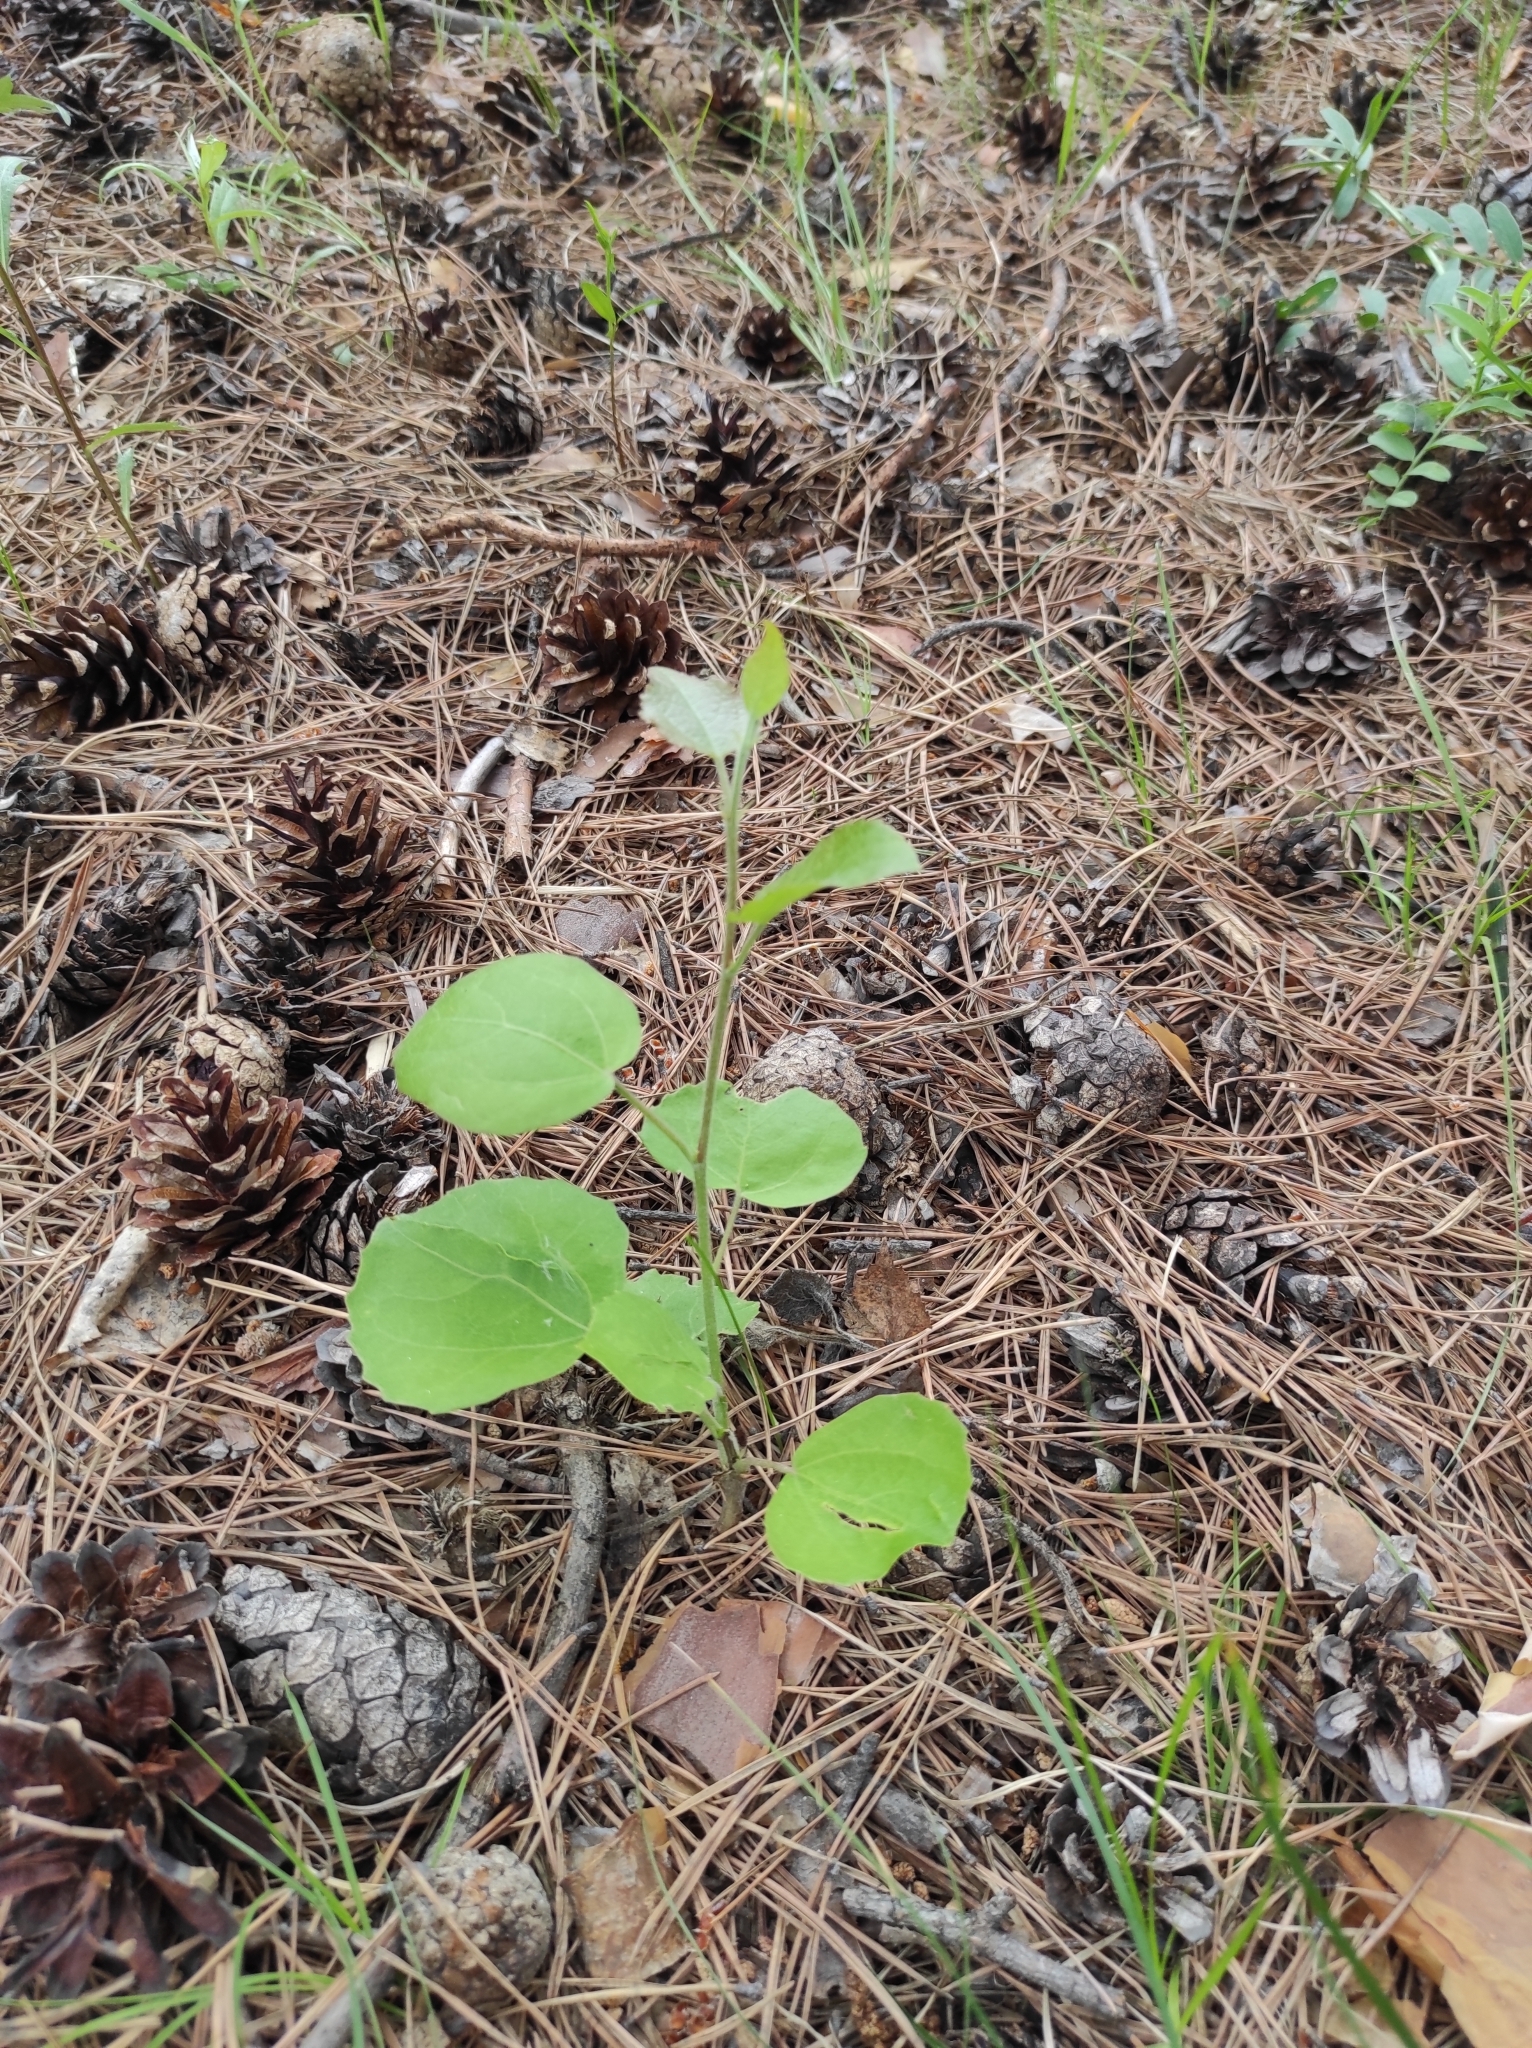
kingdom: Plantae
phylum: Tracheophyta
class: Magnoliopsida
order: Malpighiales
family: Salicaceae
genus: Populus
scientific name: Populus tremula
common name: European aspen
